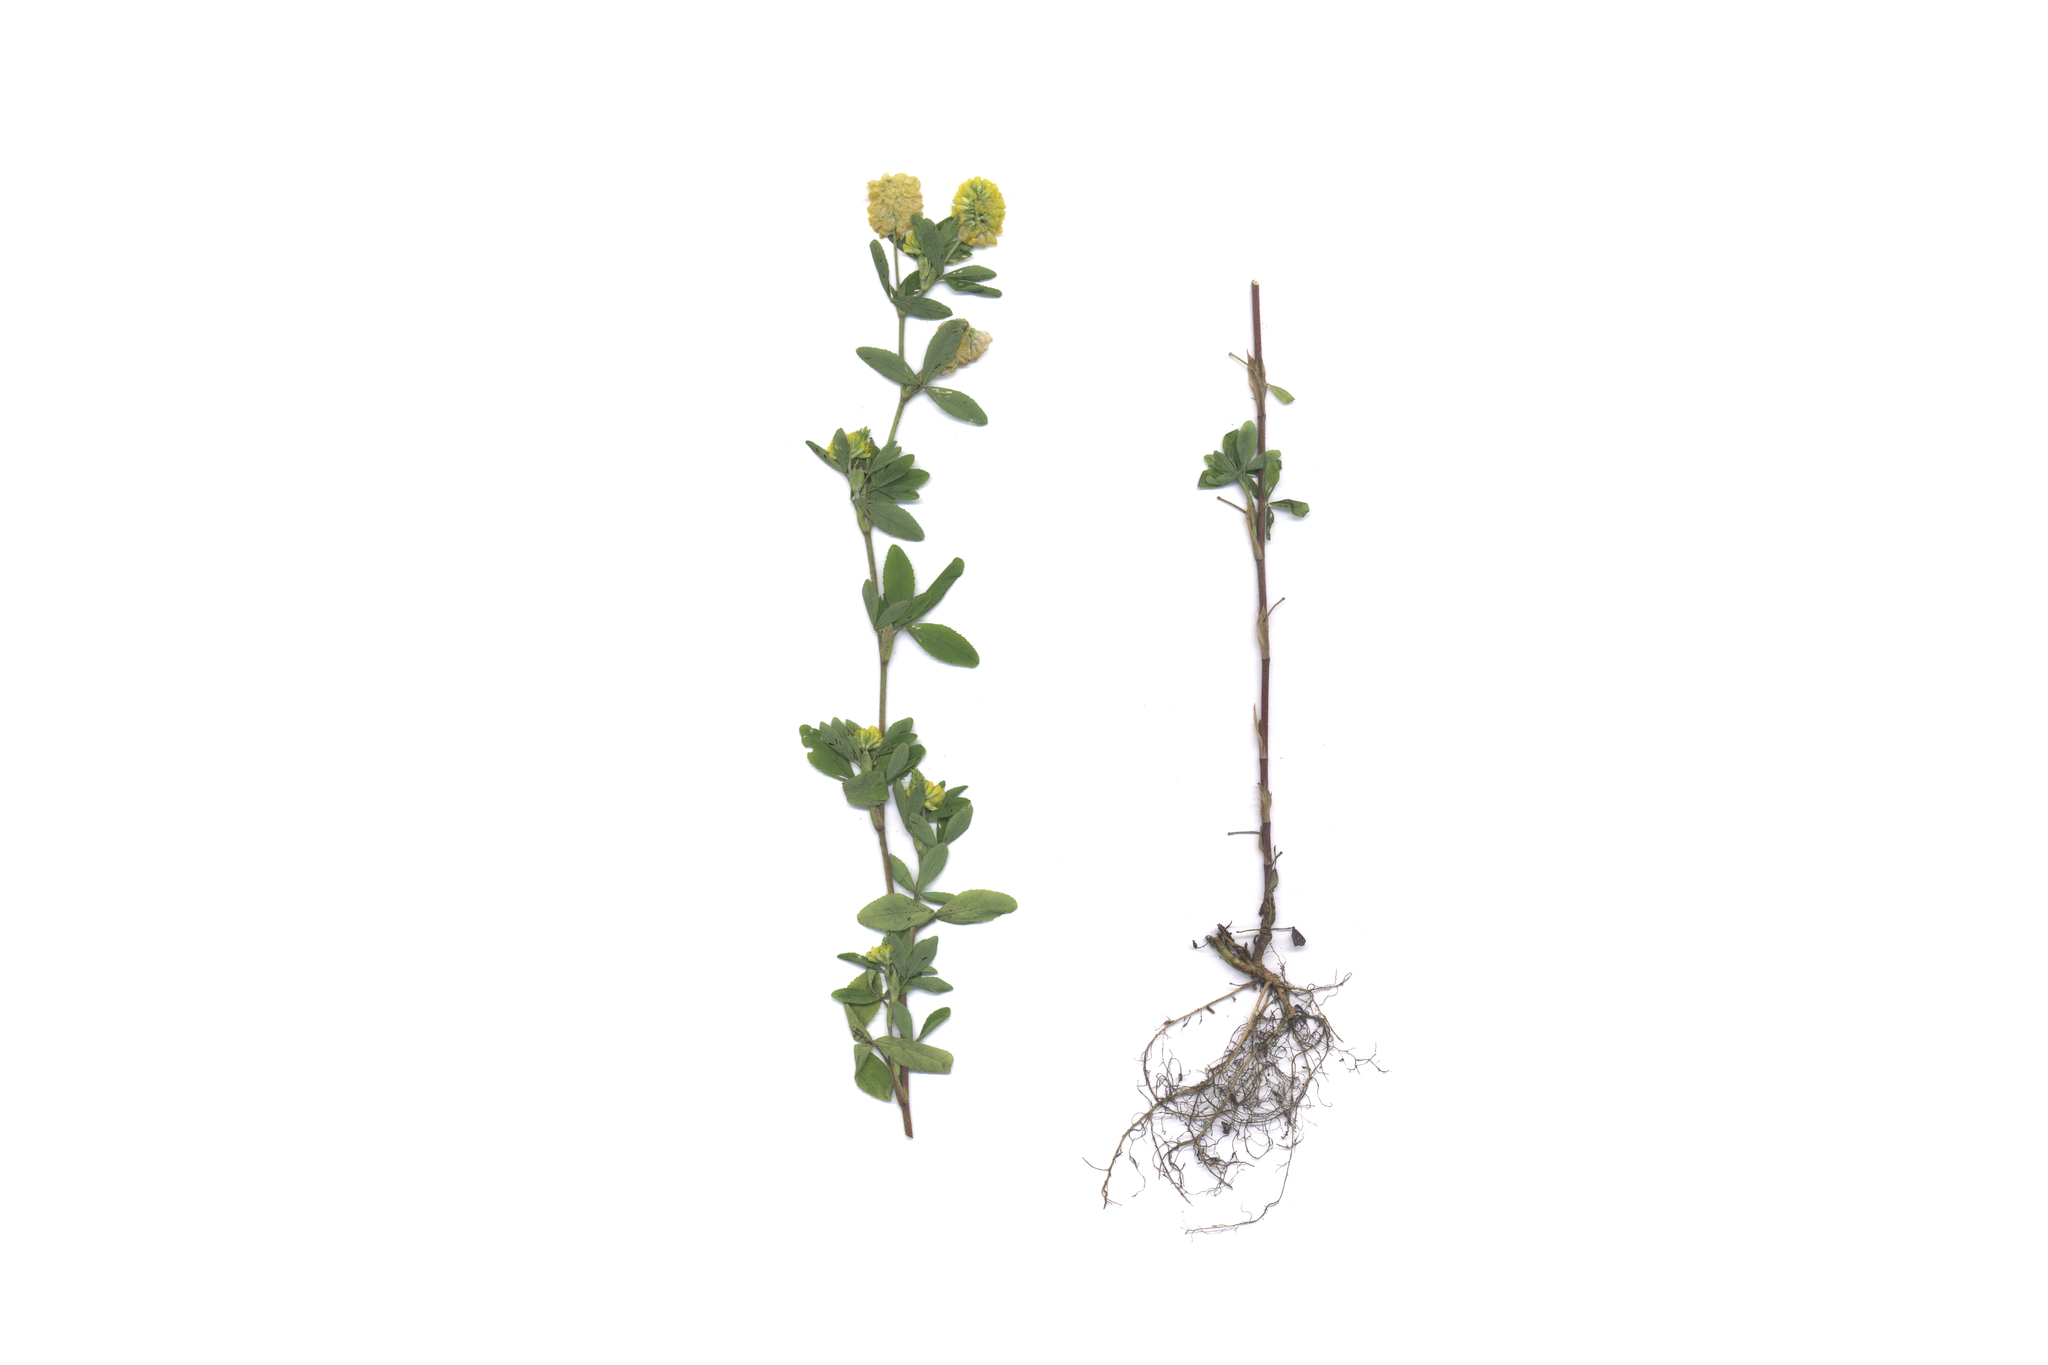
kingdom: Plantae
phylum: Tracheophyta
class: Magnoliopsida
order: Fabales
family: Fabaceae
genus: Trifolium
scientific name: Trifolium aureum
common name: Golden clover
